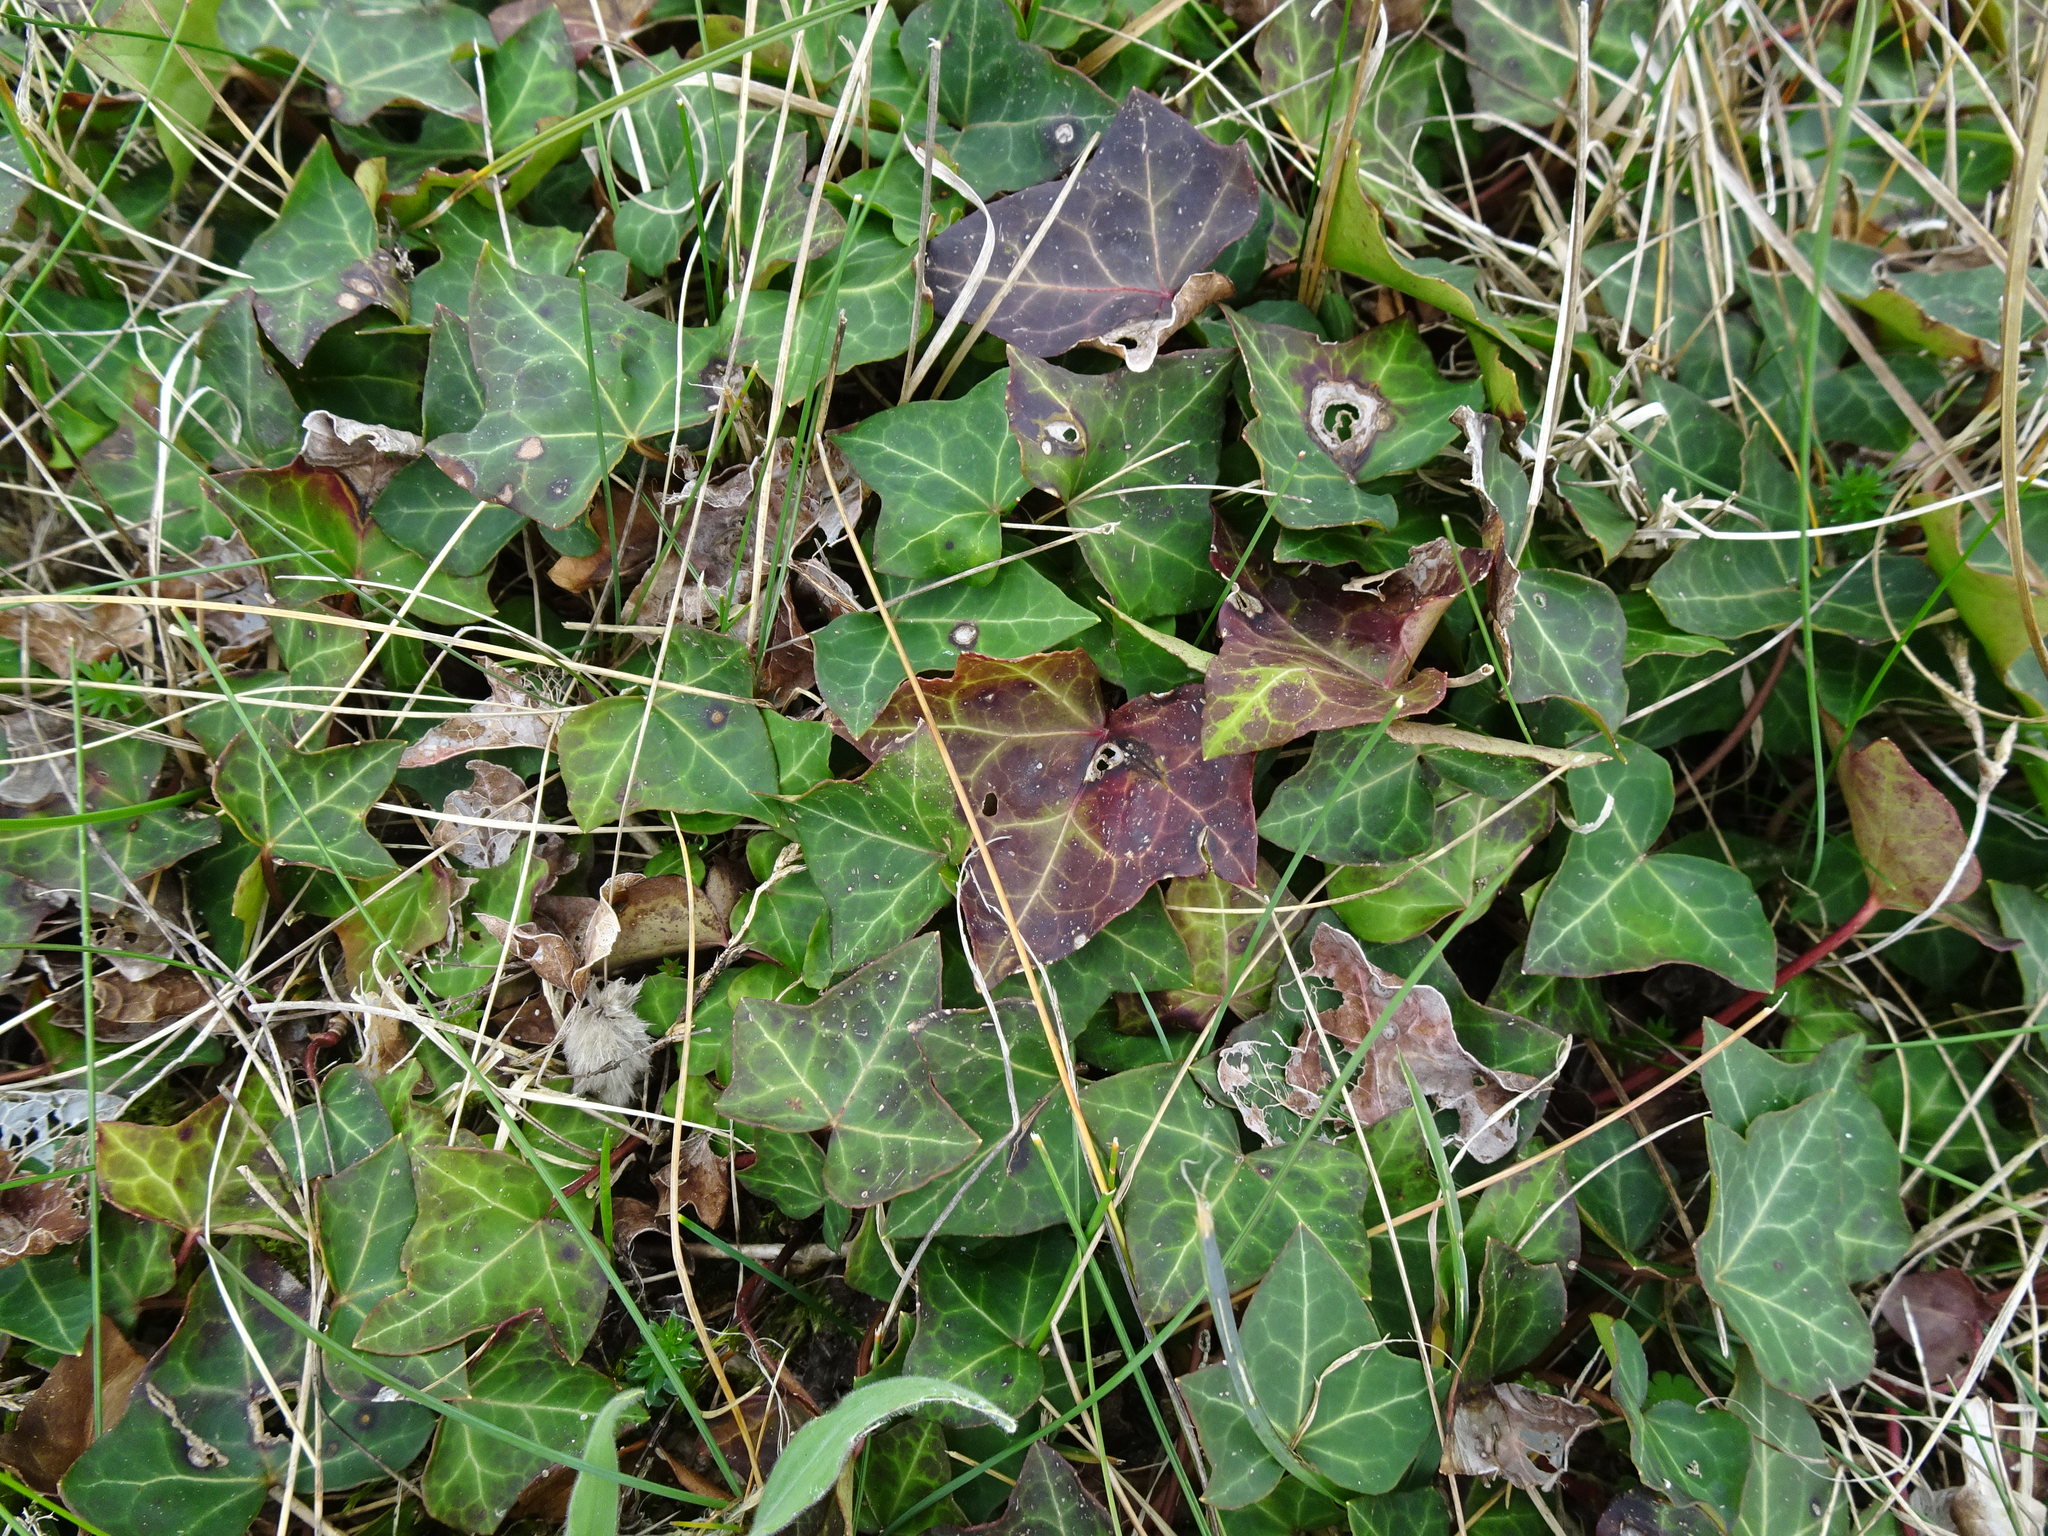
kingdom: Plantae
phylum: Tracheophyta
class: Magnoliopsida
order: Apiales
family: Araliaceae
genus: Hedera
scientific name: Hedera helix
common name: Ivy
